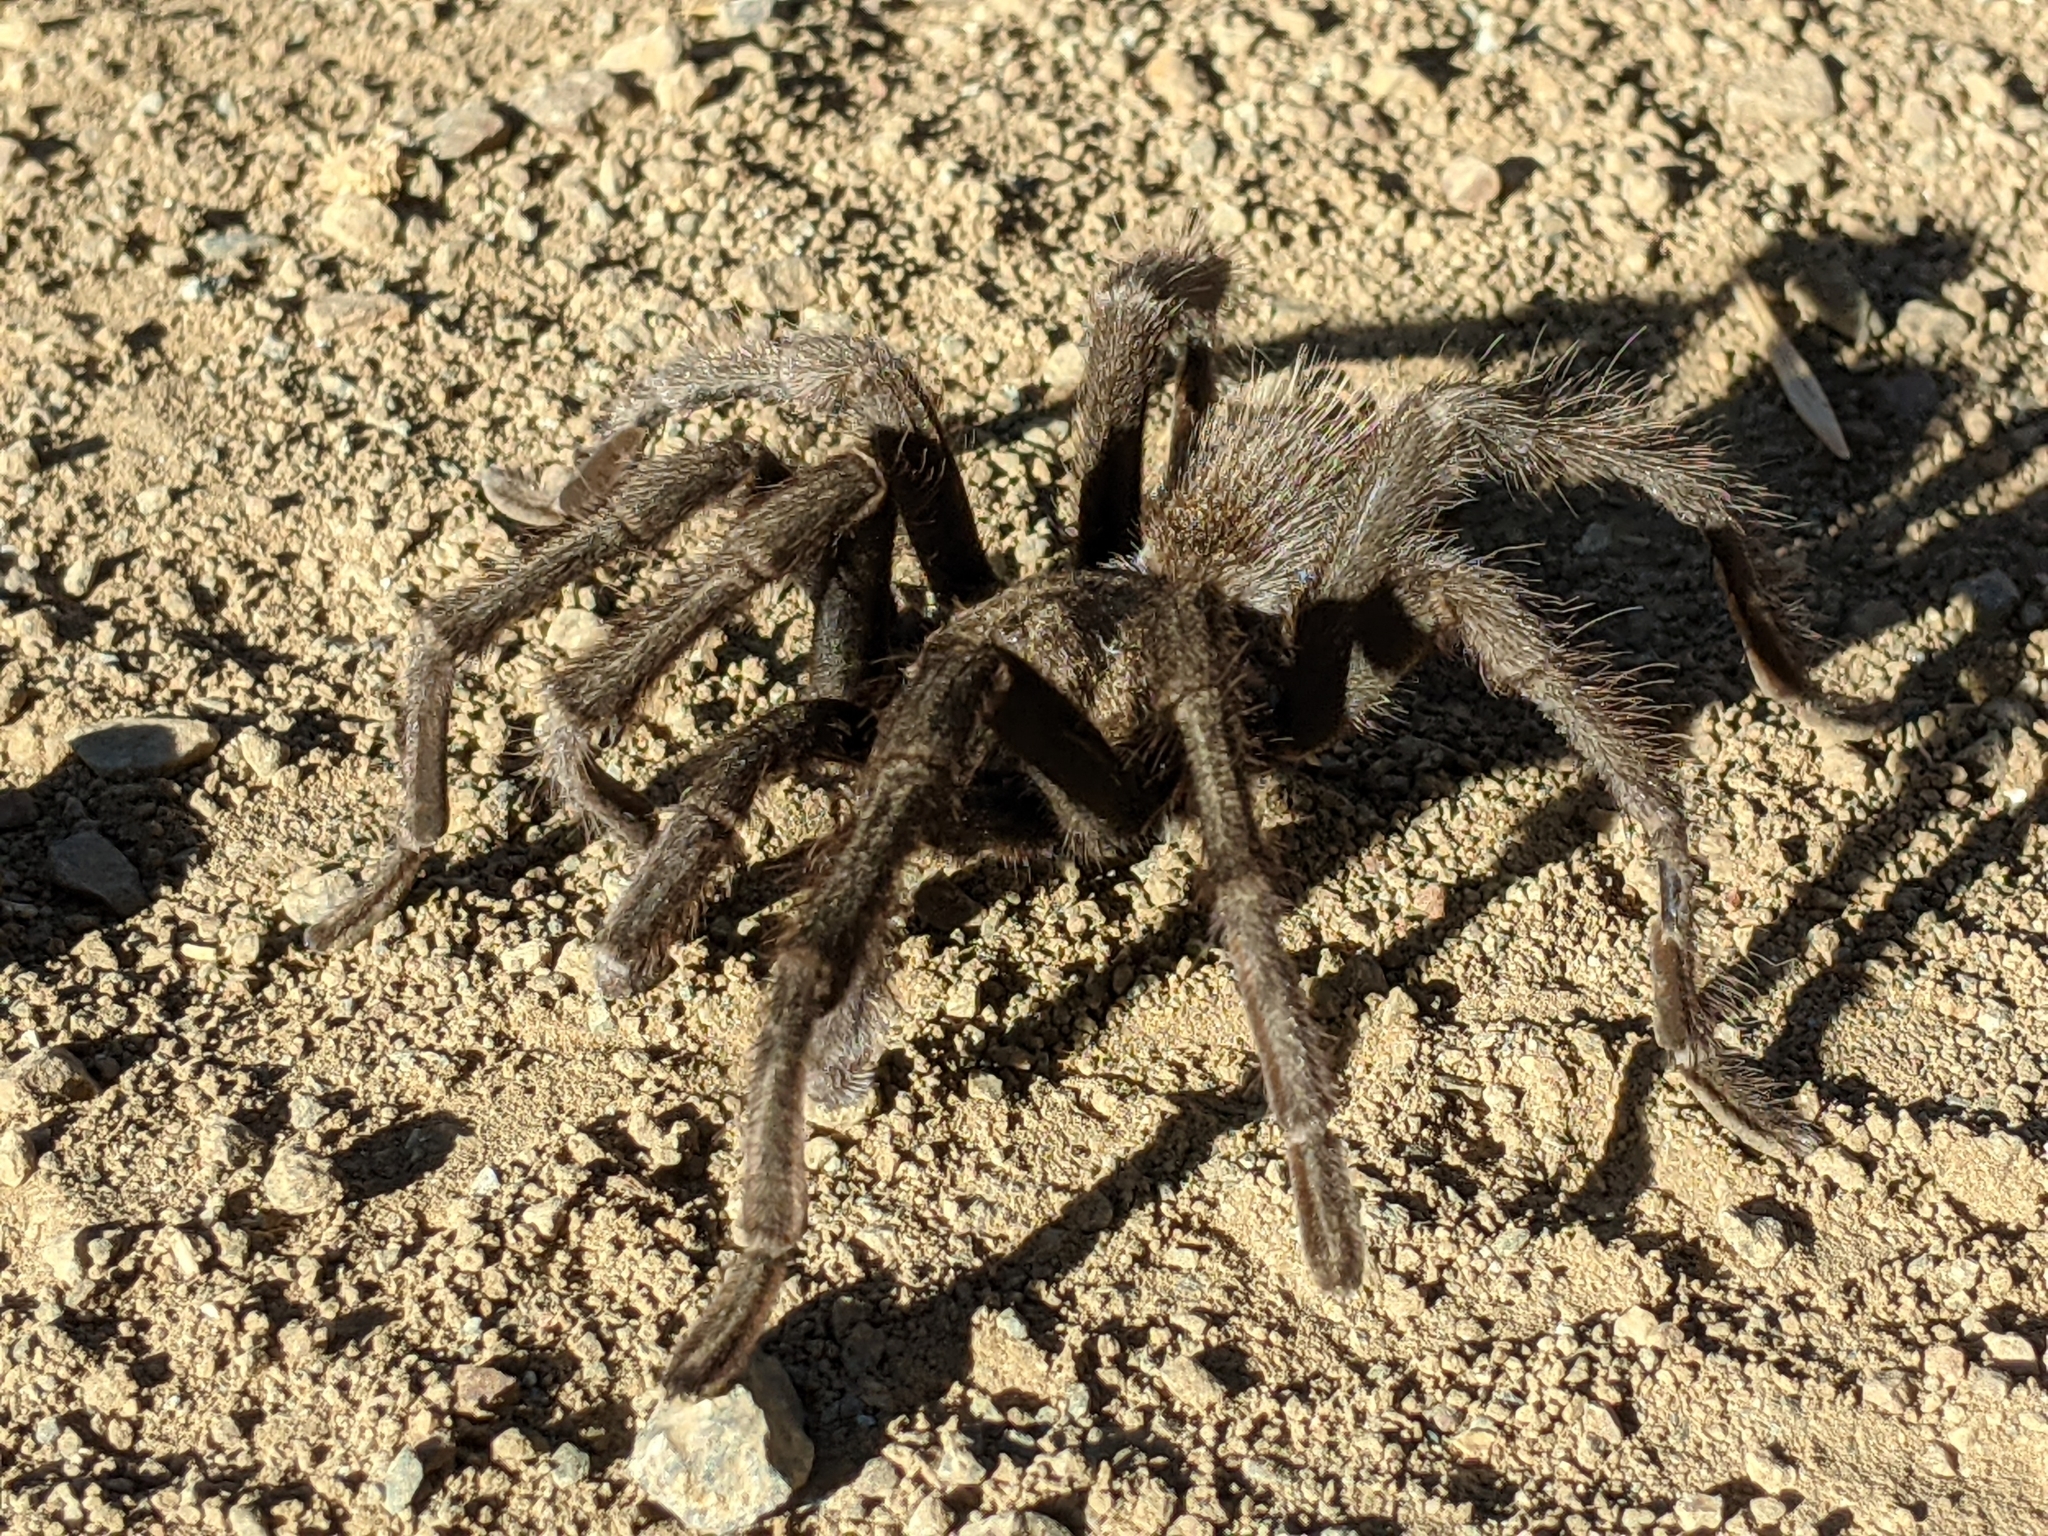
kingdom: Animalia
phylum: Arthropoda
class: Arachnida
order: Araneae
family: Theraphosidae
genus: Aphonopelma
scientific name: Aphonopelma iodius
